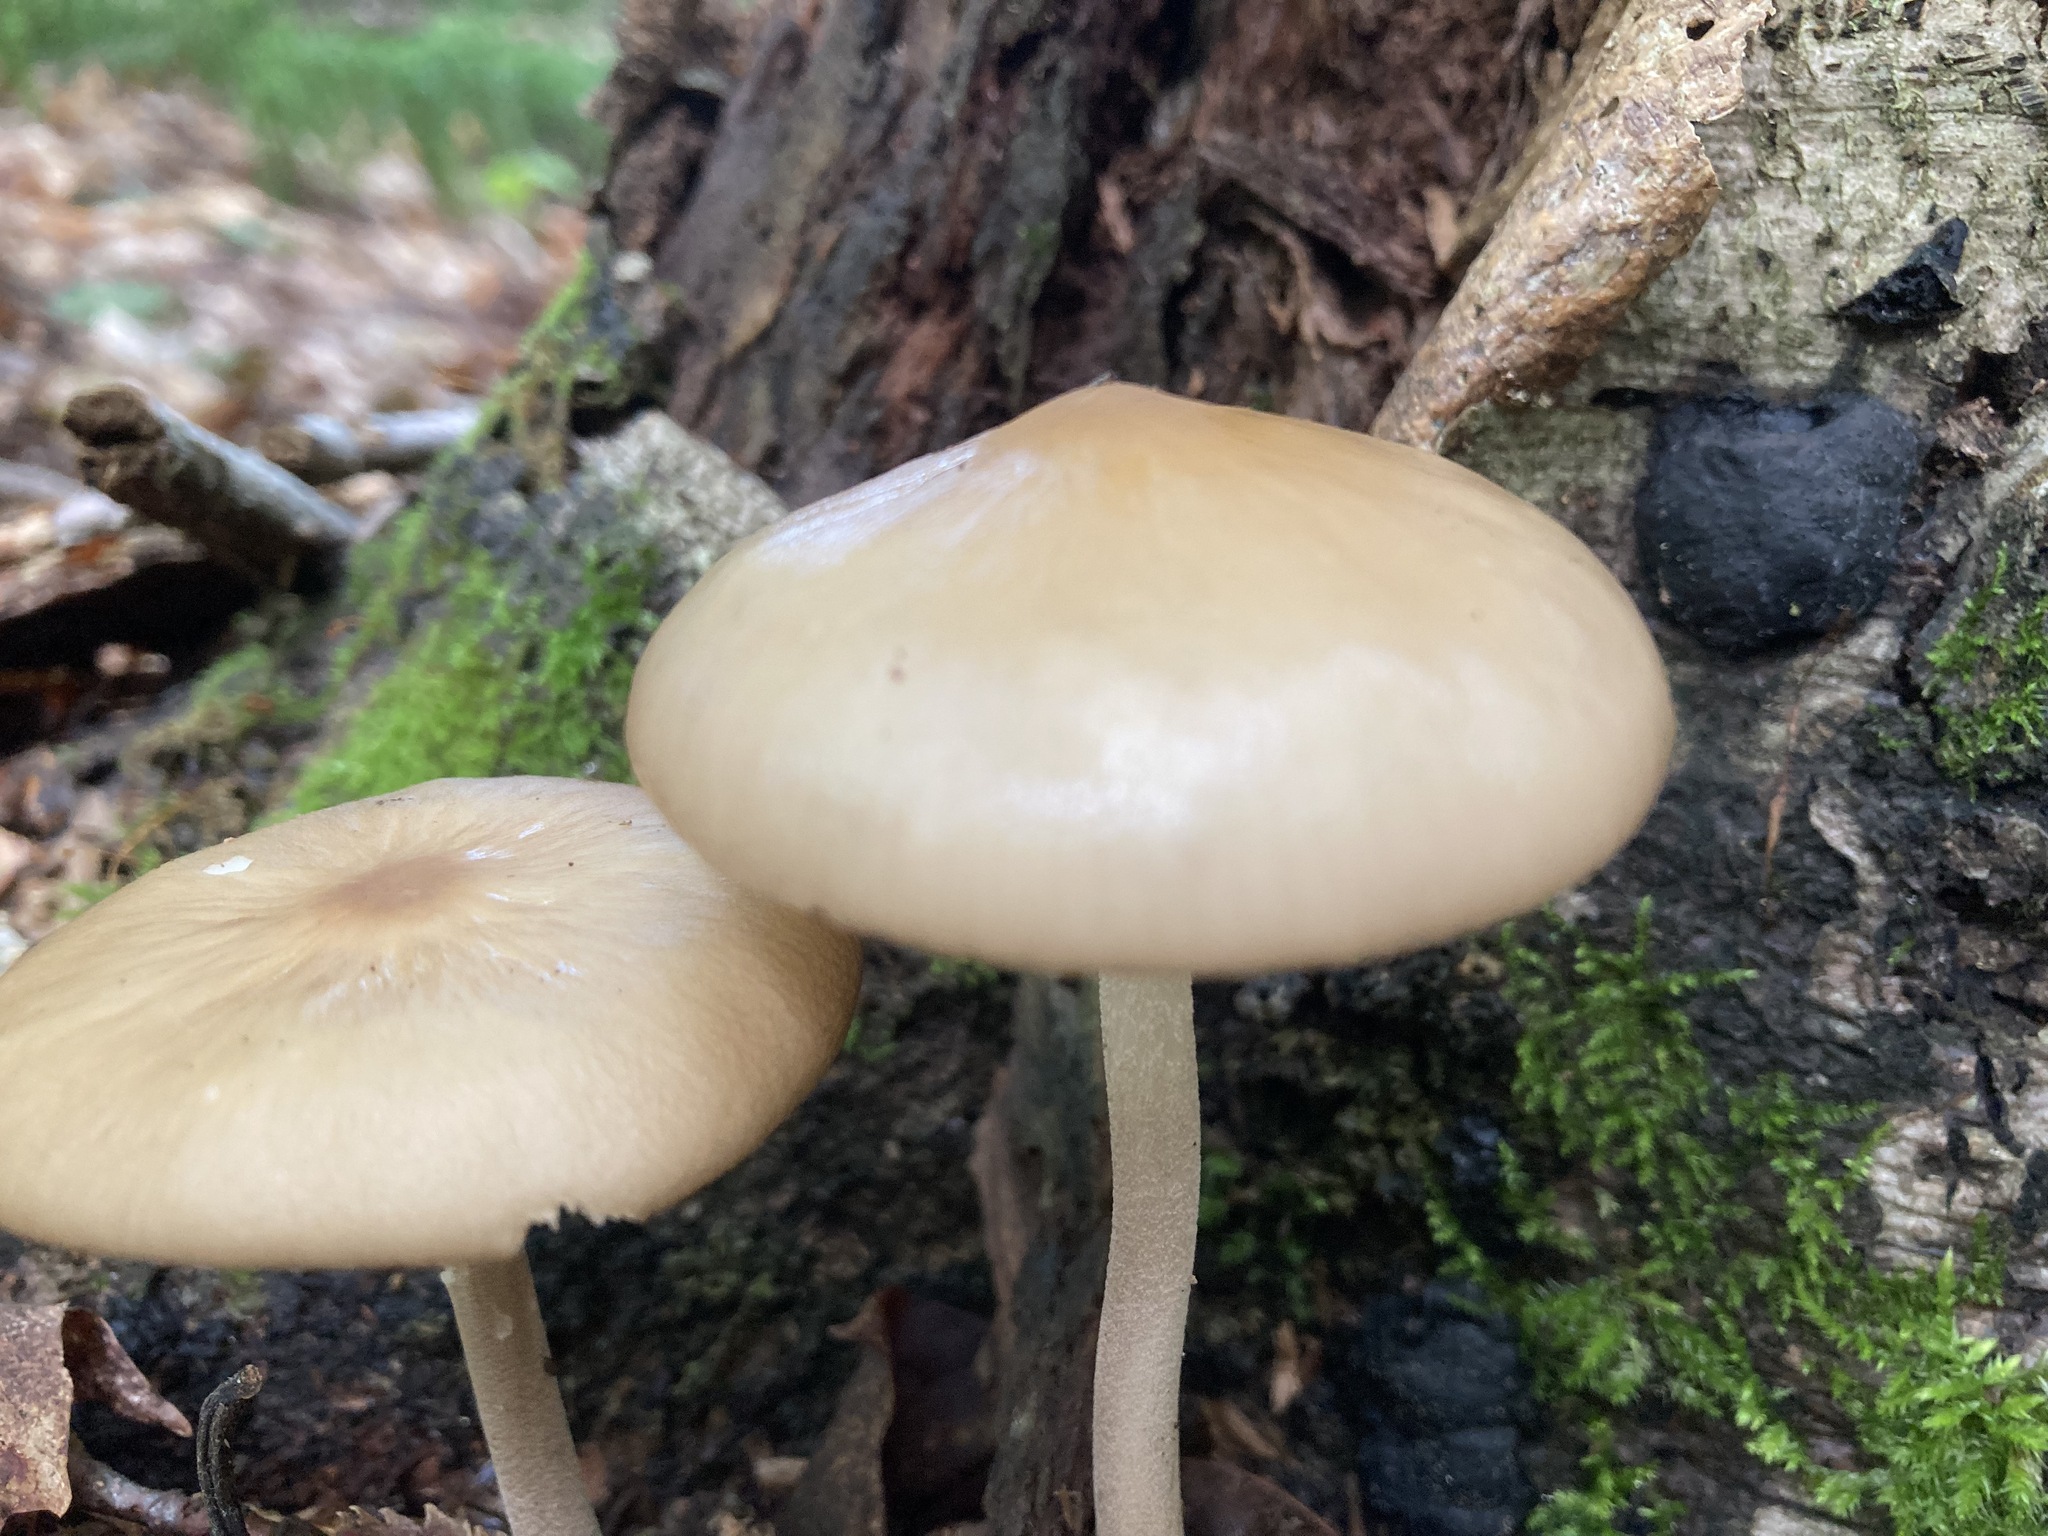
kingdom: Fungi
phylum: Basidiomycota
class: Agaricomycetes
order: Agaricales
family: Physalacriaceae
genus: Hymenopellis
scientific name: Hymenopellis furfuracea
